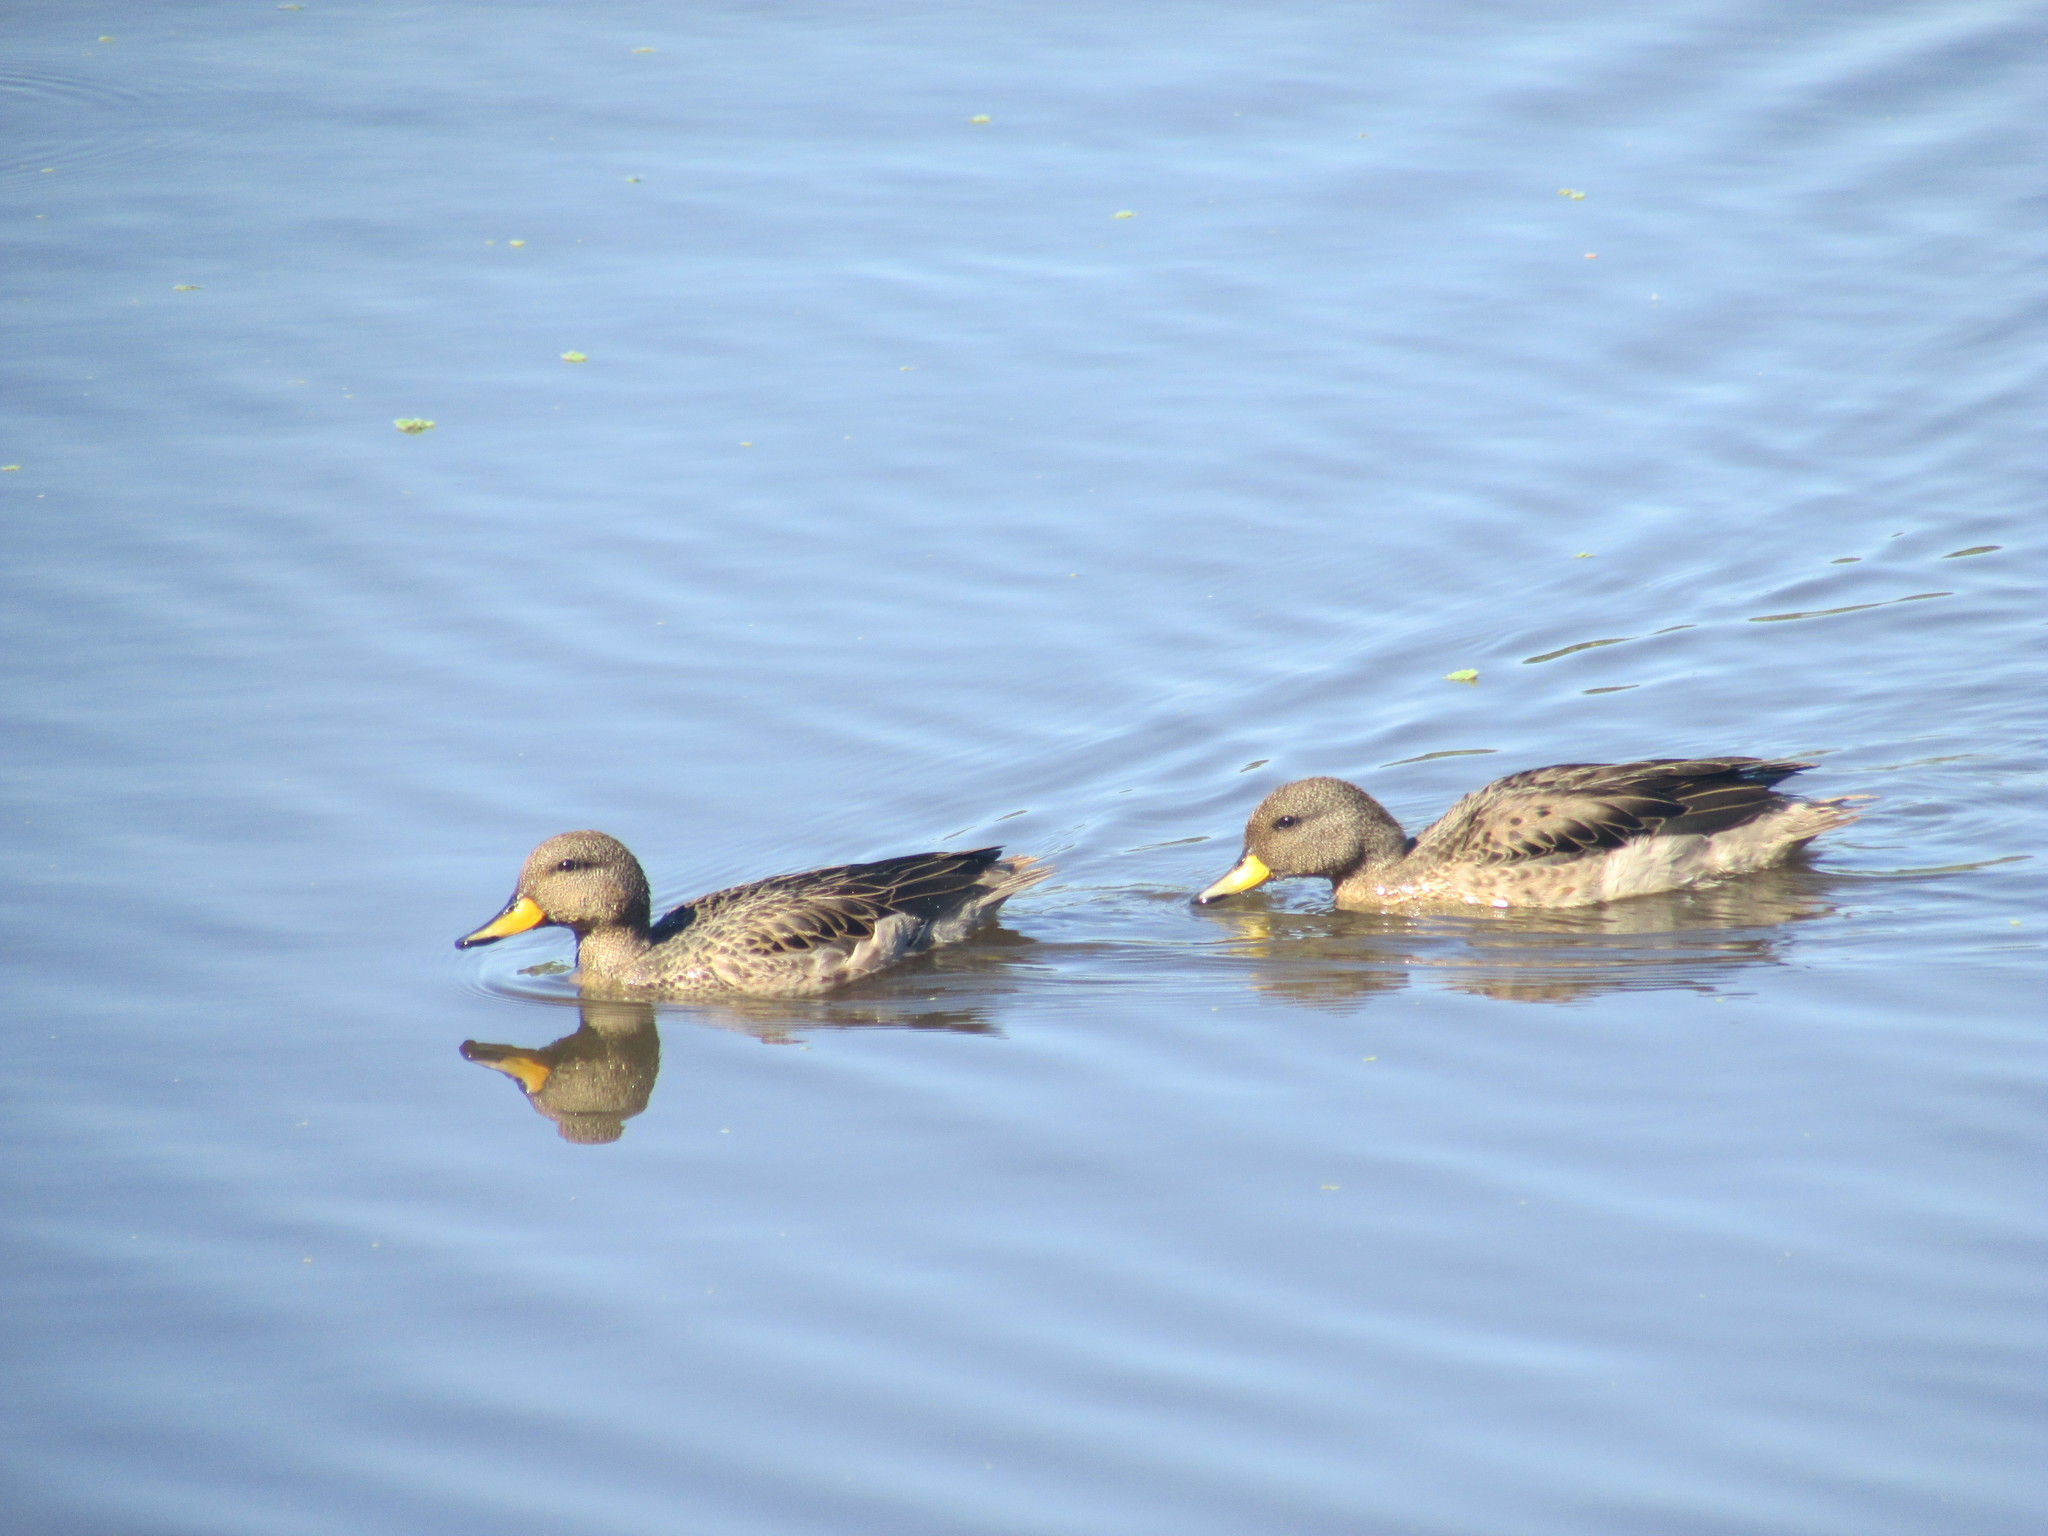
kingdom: Animalia
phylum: Chordata
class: Aves
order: Anseriformes
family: Anatidae
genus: Anas
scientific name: Anas flavirostris
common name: Yellow-billed teal
